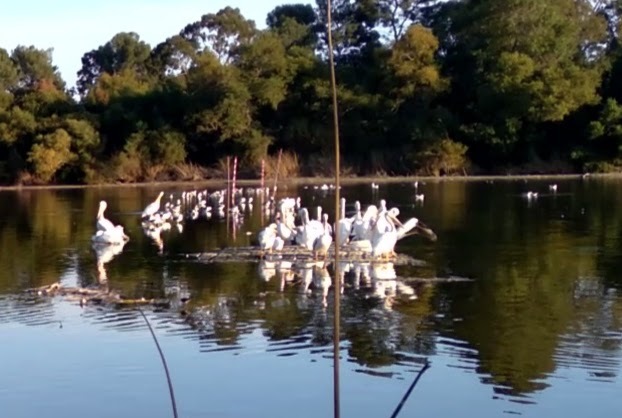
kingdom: Animalia
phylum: Chordata
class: Aves
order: Pelecaniformes
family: Pelecanidae
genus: Pelecanus
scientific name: Pelecanus erythrorhynchos
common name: American white pelican
